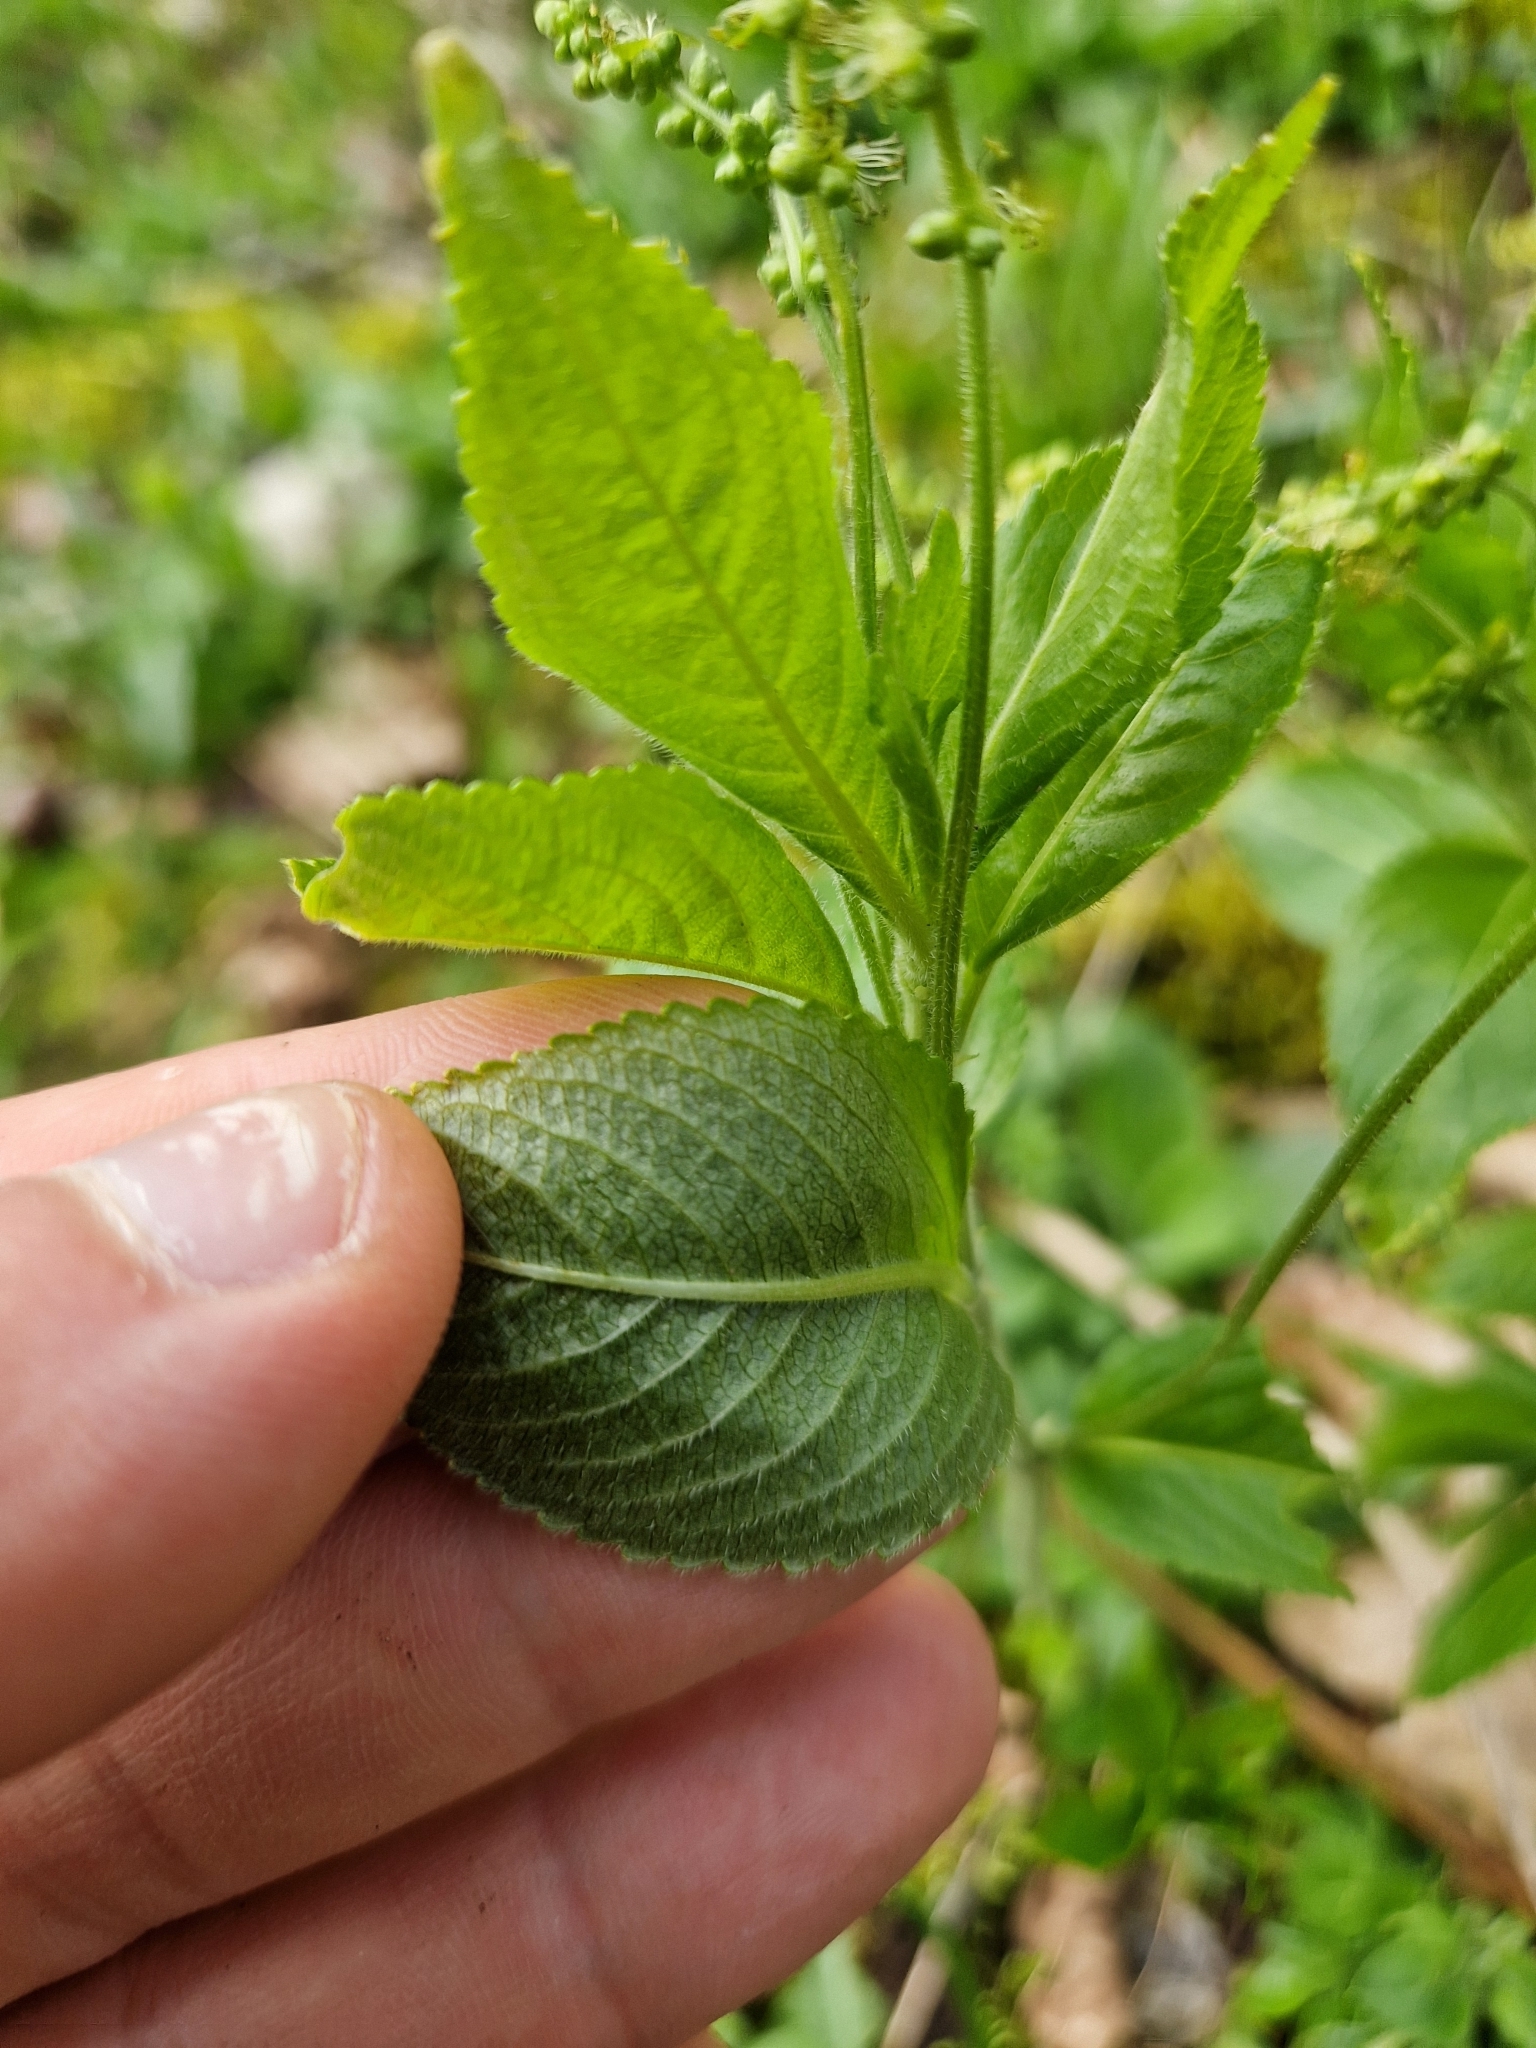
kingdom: Plantae
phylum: Tracheophyta
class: Magnoliopsida
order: Malpighiales
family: Euphorbiaceae
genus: Mercurialis
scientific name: Mercurialis perennis
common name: Dog mercury
